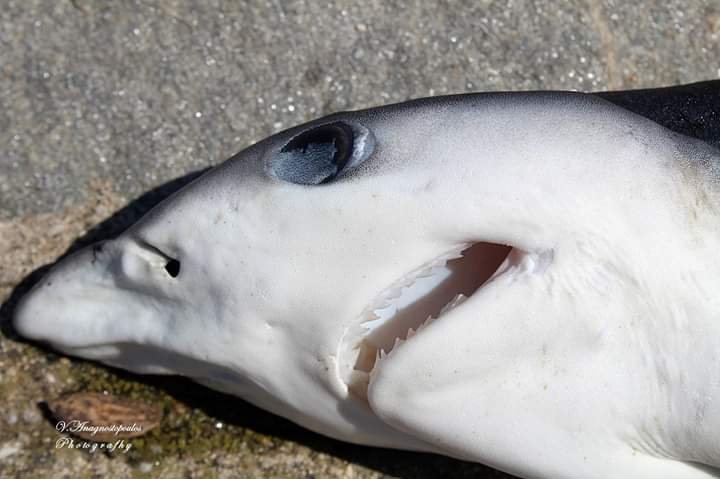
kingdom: Animalia
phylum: Chordata
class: Elasmobranchii
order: Carcharhiniformes
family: Carcharhinidae
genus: Prionace
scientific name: Prionace glauca
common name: Blue shark
